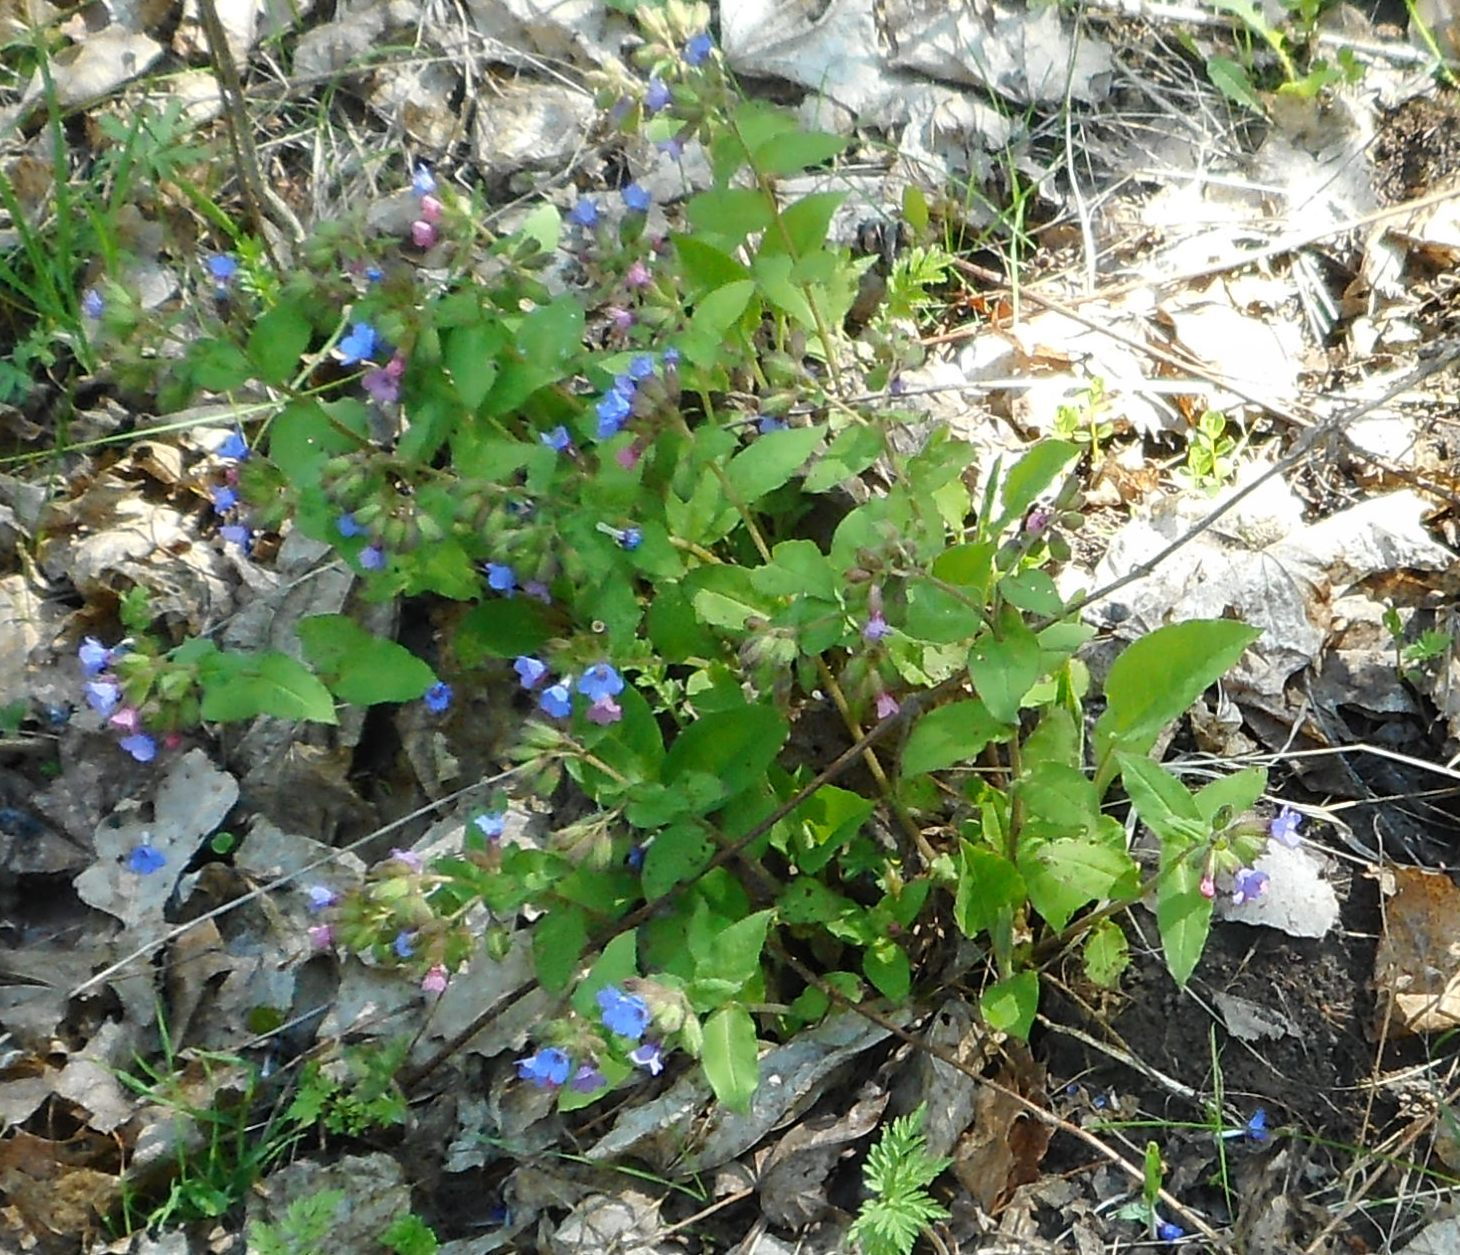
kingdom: Plantae
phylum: Tracheophyta
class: Magnoliopsida
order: Boraginales
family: Boraginaceae
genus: Pulmonaria
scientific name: Pulmonaria obscura
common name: Suffolk lungwort
